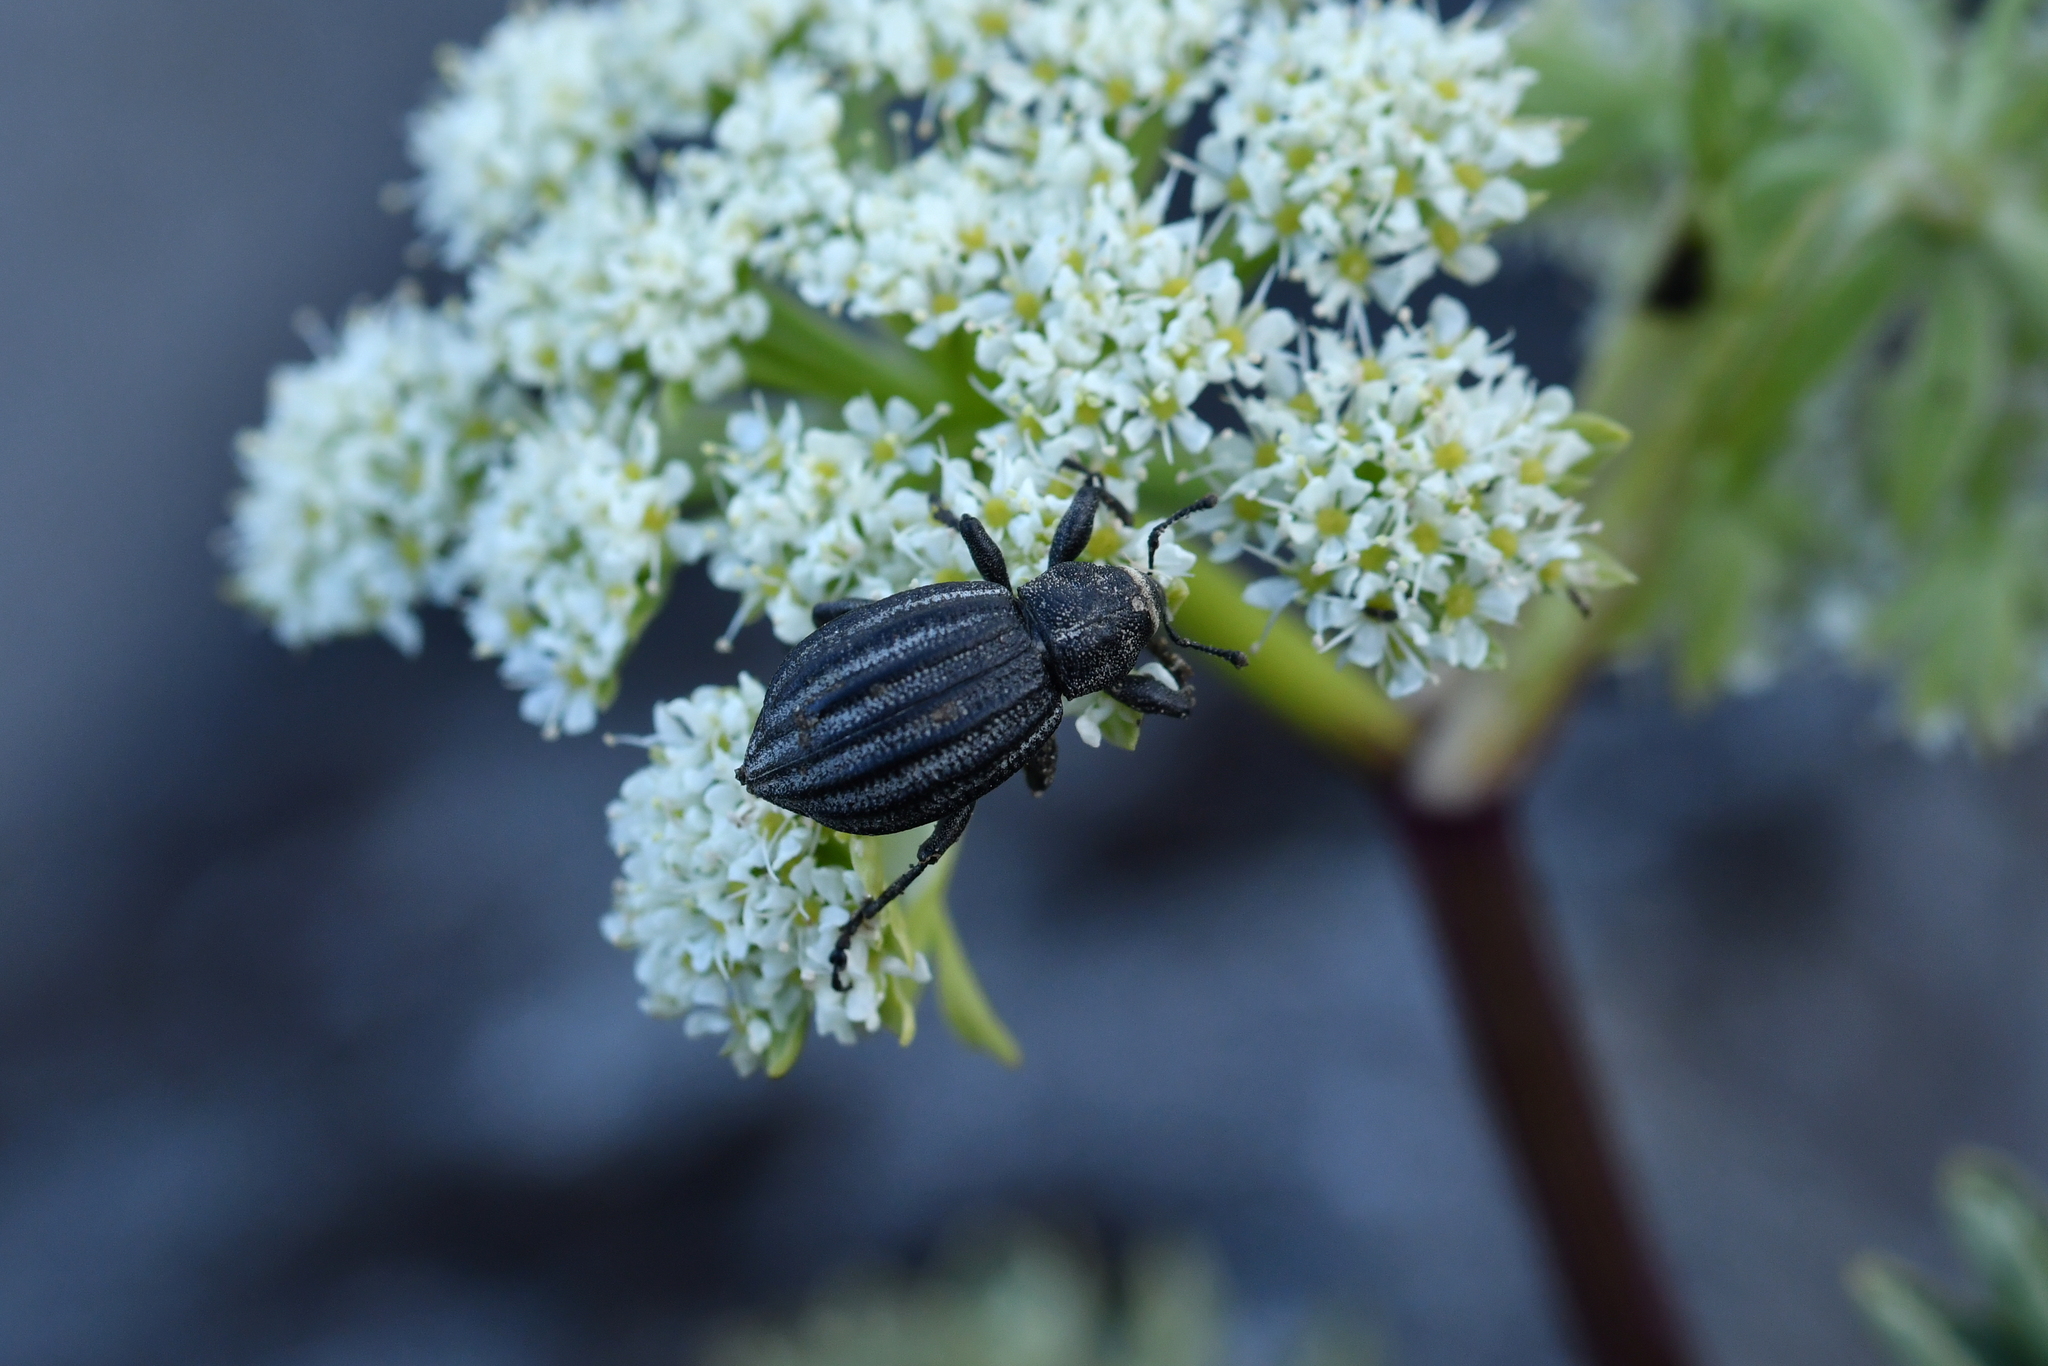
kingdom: Animalia
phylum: Arthropoda
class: Insecta
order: Coleoptera
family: Curculionidae
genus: Lyperobius
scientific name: Lyperobius coxalis
